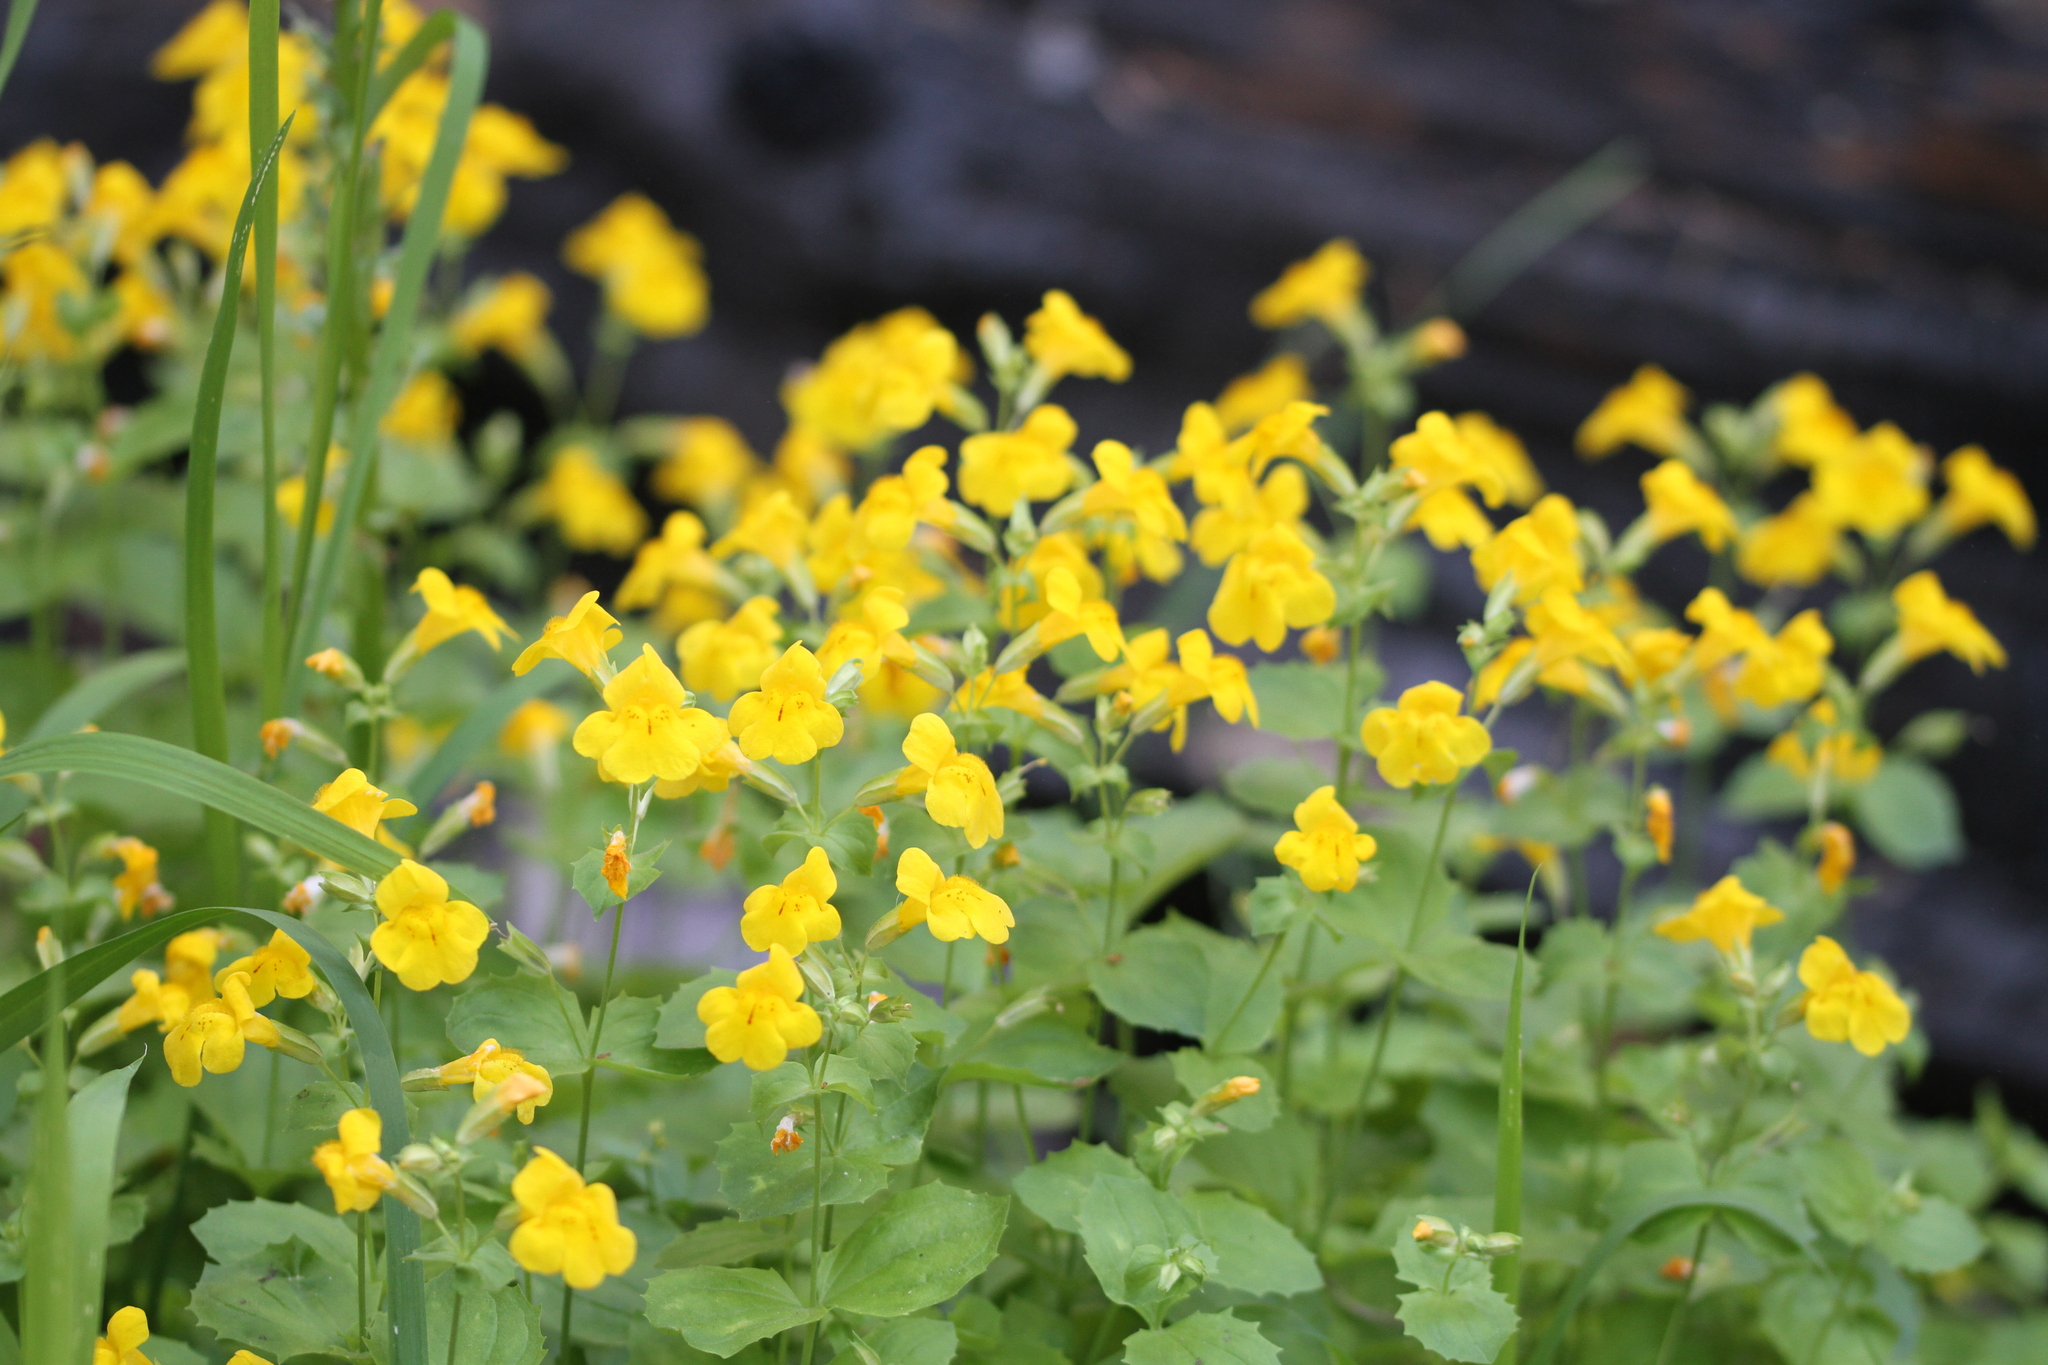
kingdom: Plantae
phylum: Tracheophyta
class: Magnoliopsida
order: Lamiales
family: Phrymaceae
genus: Erythranthe
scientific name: Erythranthe tilingii
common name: Subalpine monkey-flower
